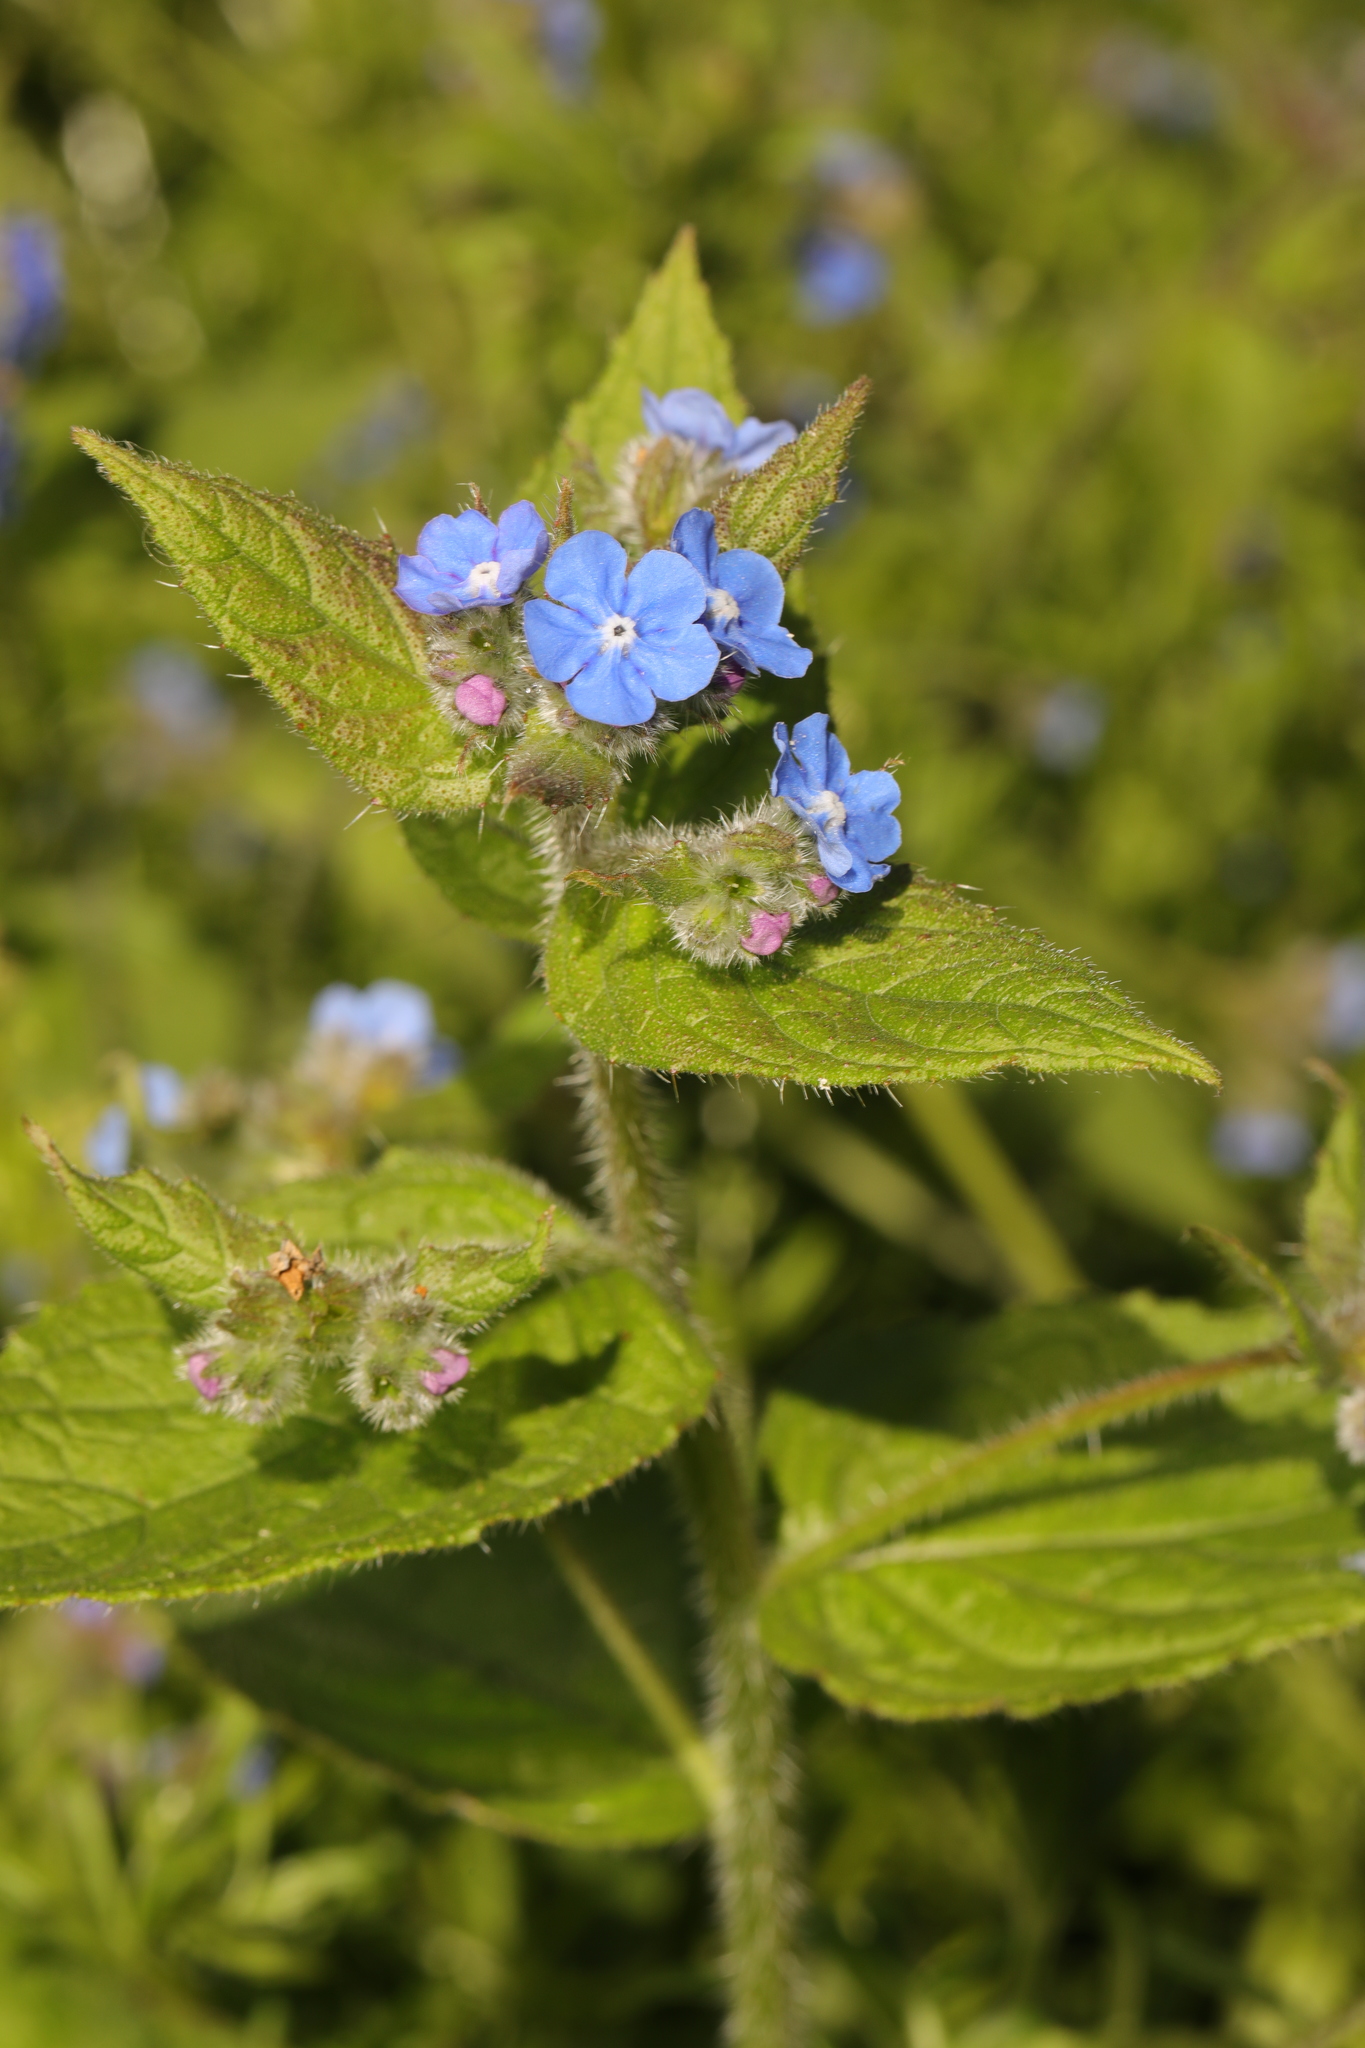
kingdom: Plantae
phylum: Tracheophyta
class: Magnoliopsida
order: Boraginales
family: Boraginaceae
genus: Pentaglottis
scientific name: Pentaglottis sempervirens
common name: Green alkanet
